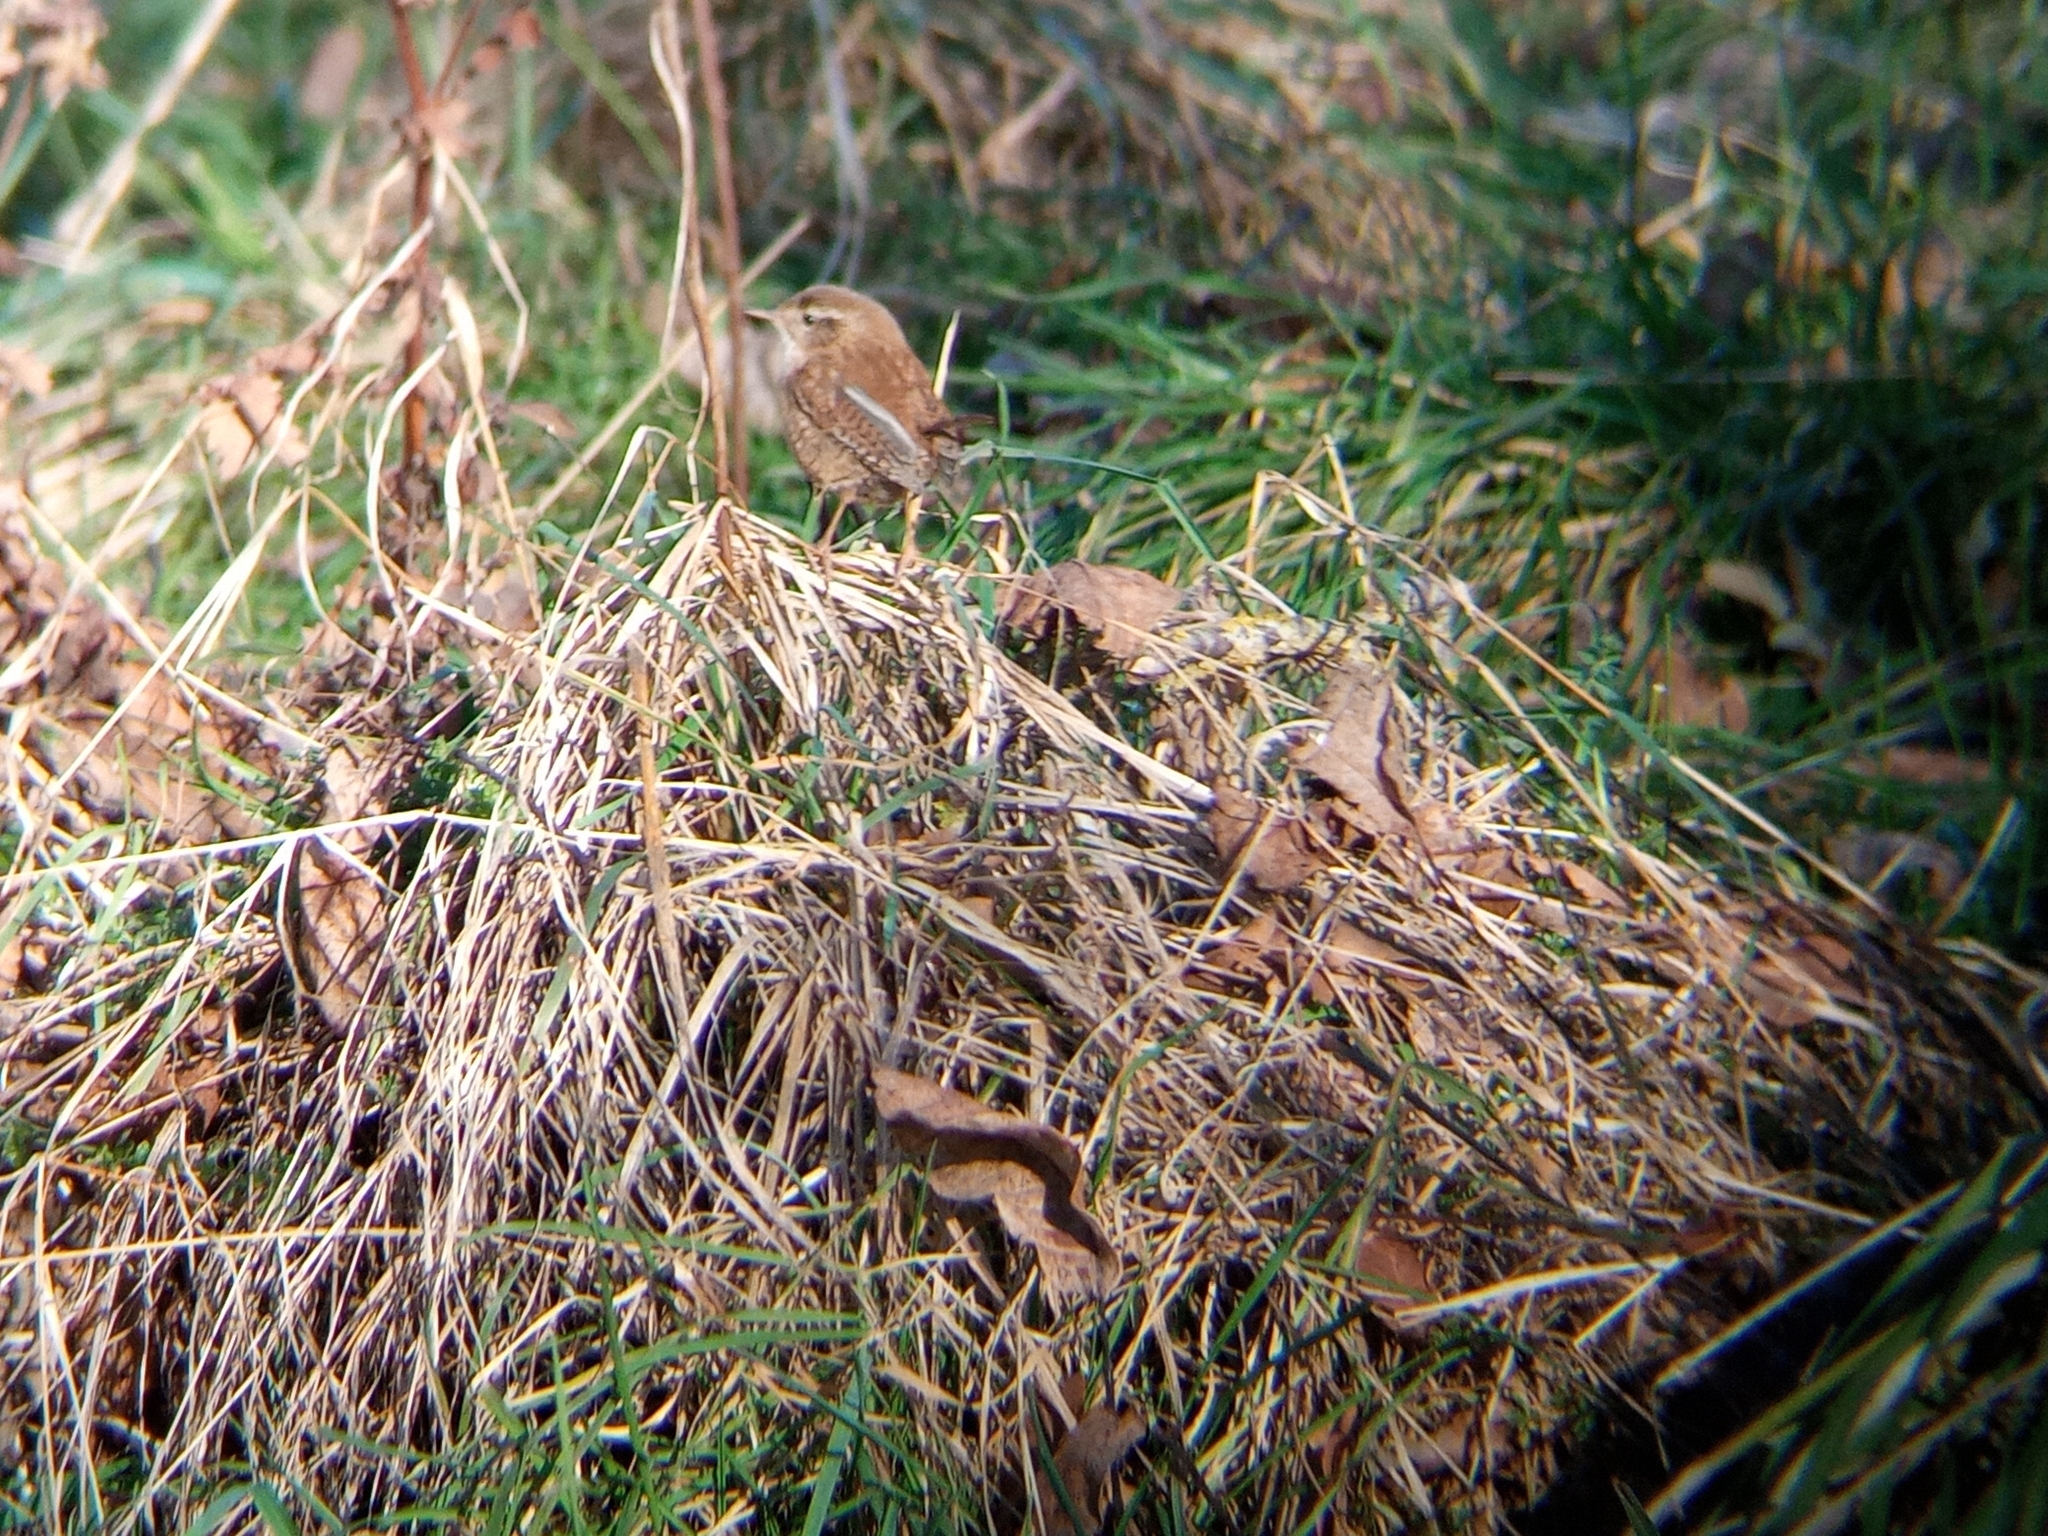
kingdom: Animalia
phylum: Chordata
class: Aves
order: Passeriformes
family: Troglodytidae
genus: Troglodytes
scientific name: Troglodytes troglodytes
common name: Eurasian wren
